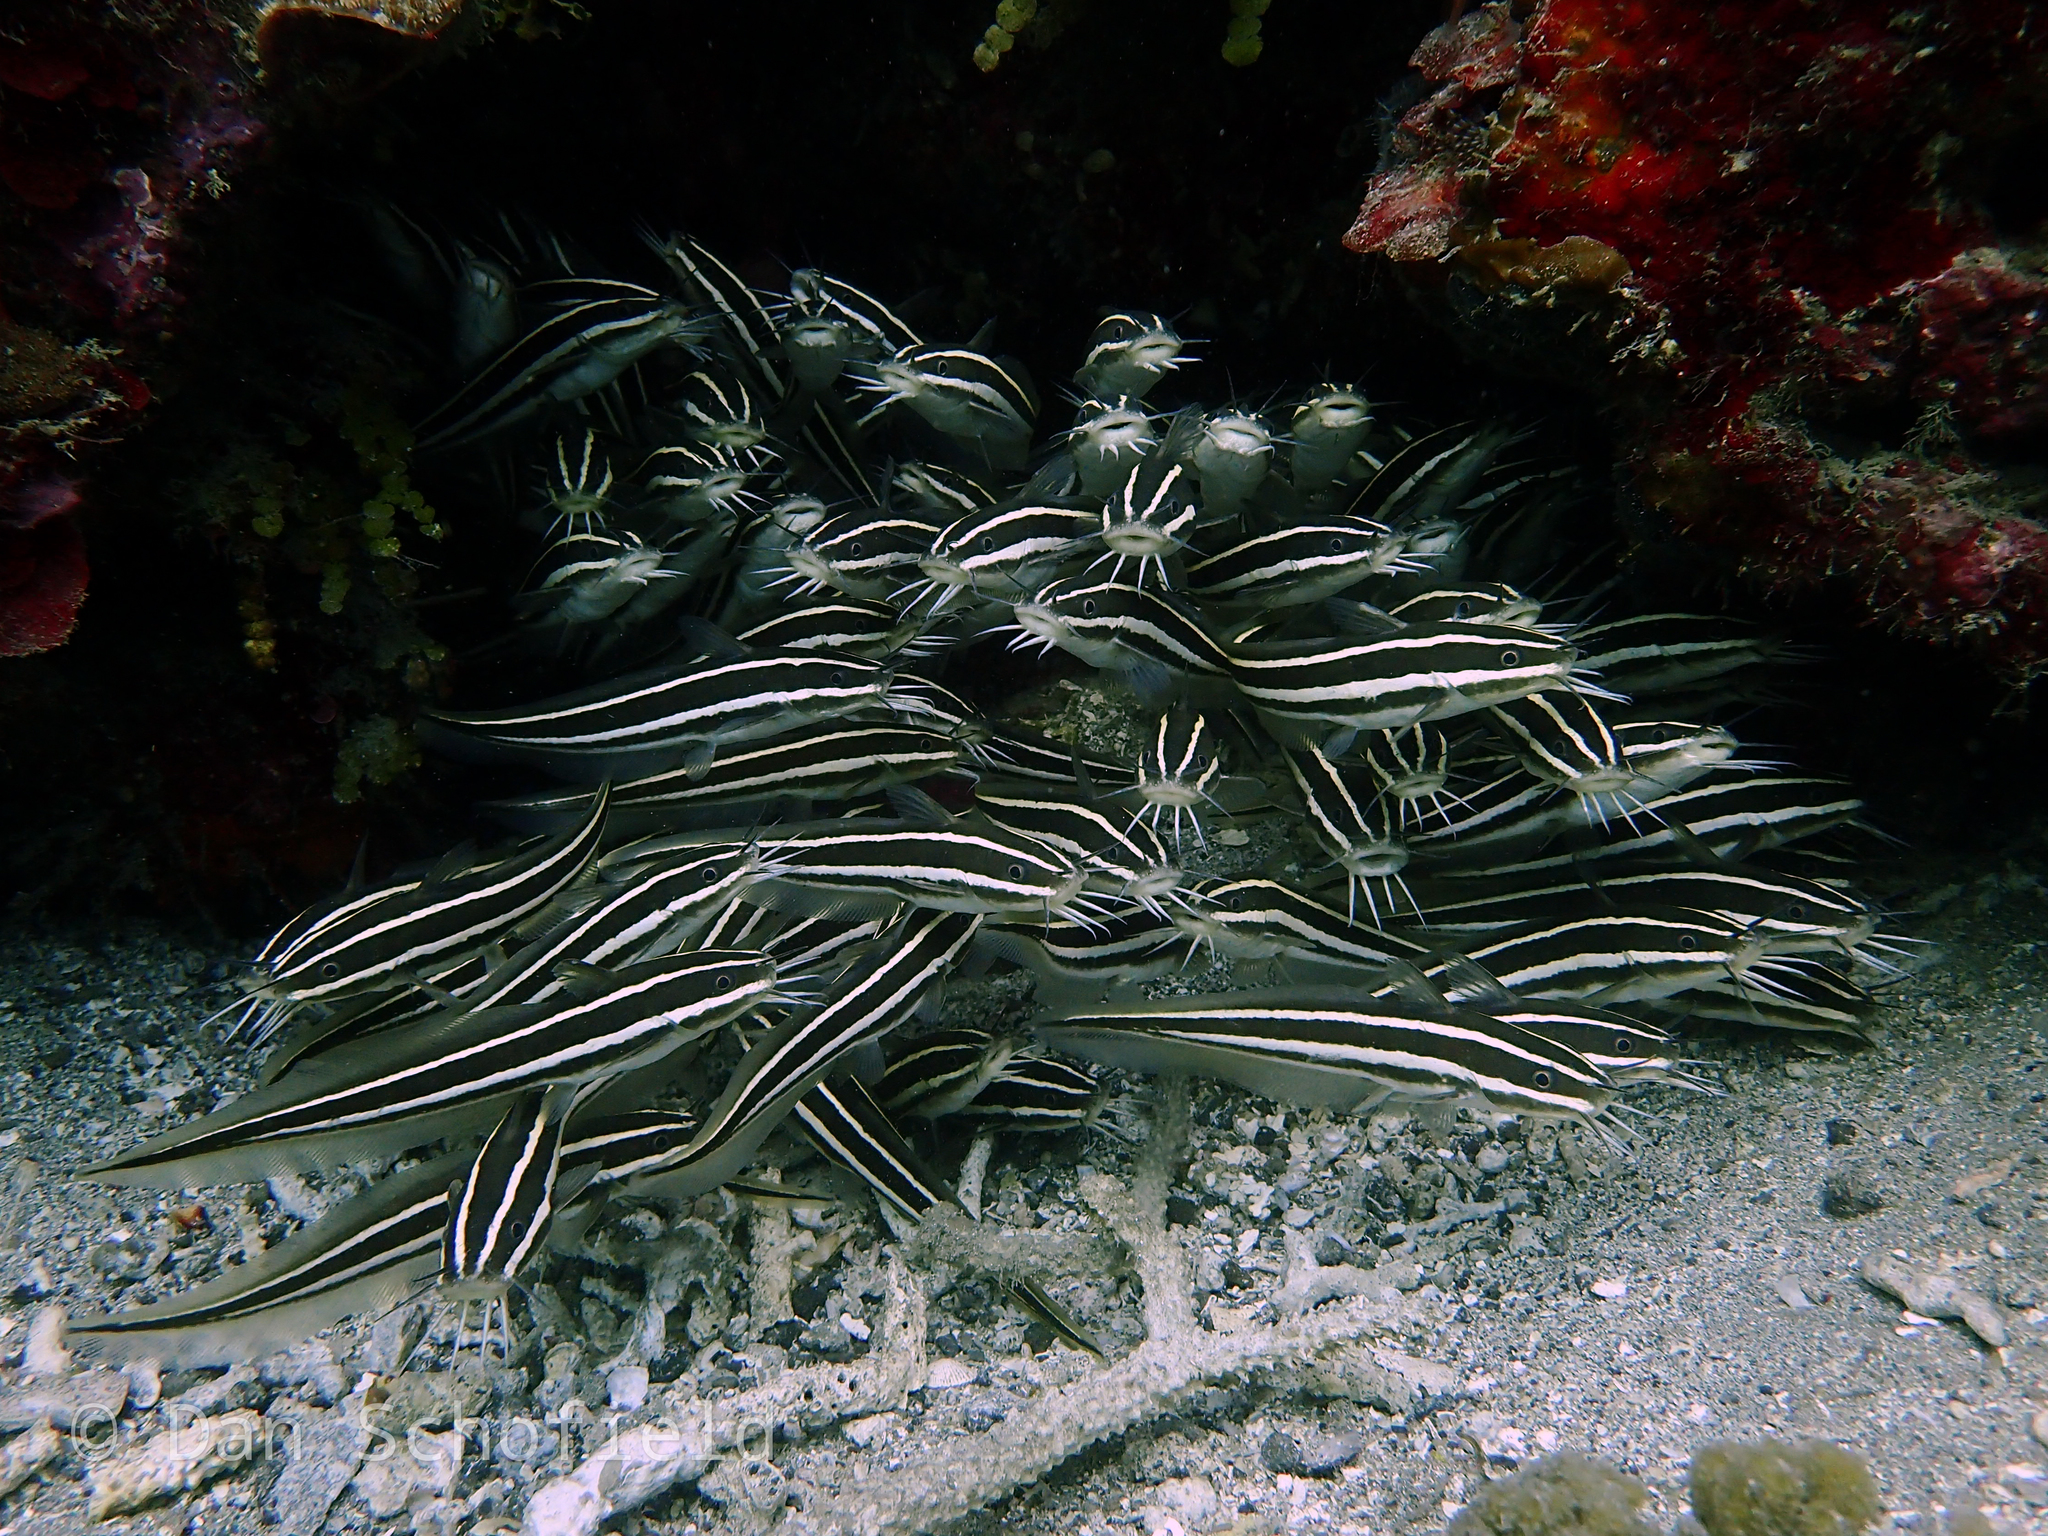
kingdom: Animalia
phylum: Chordata
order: Siluriformes
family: Plotosidae
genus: Plotosus
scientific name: Plotosus lineatus
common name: Striped eel catfish
